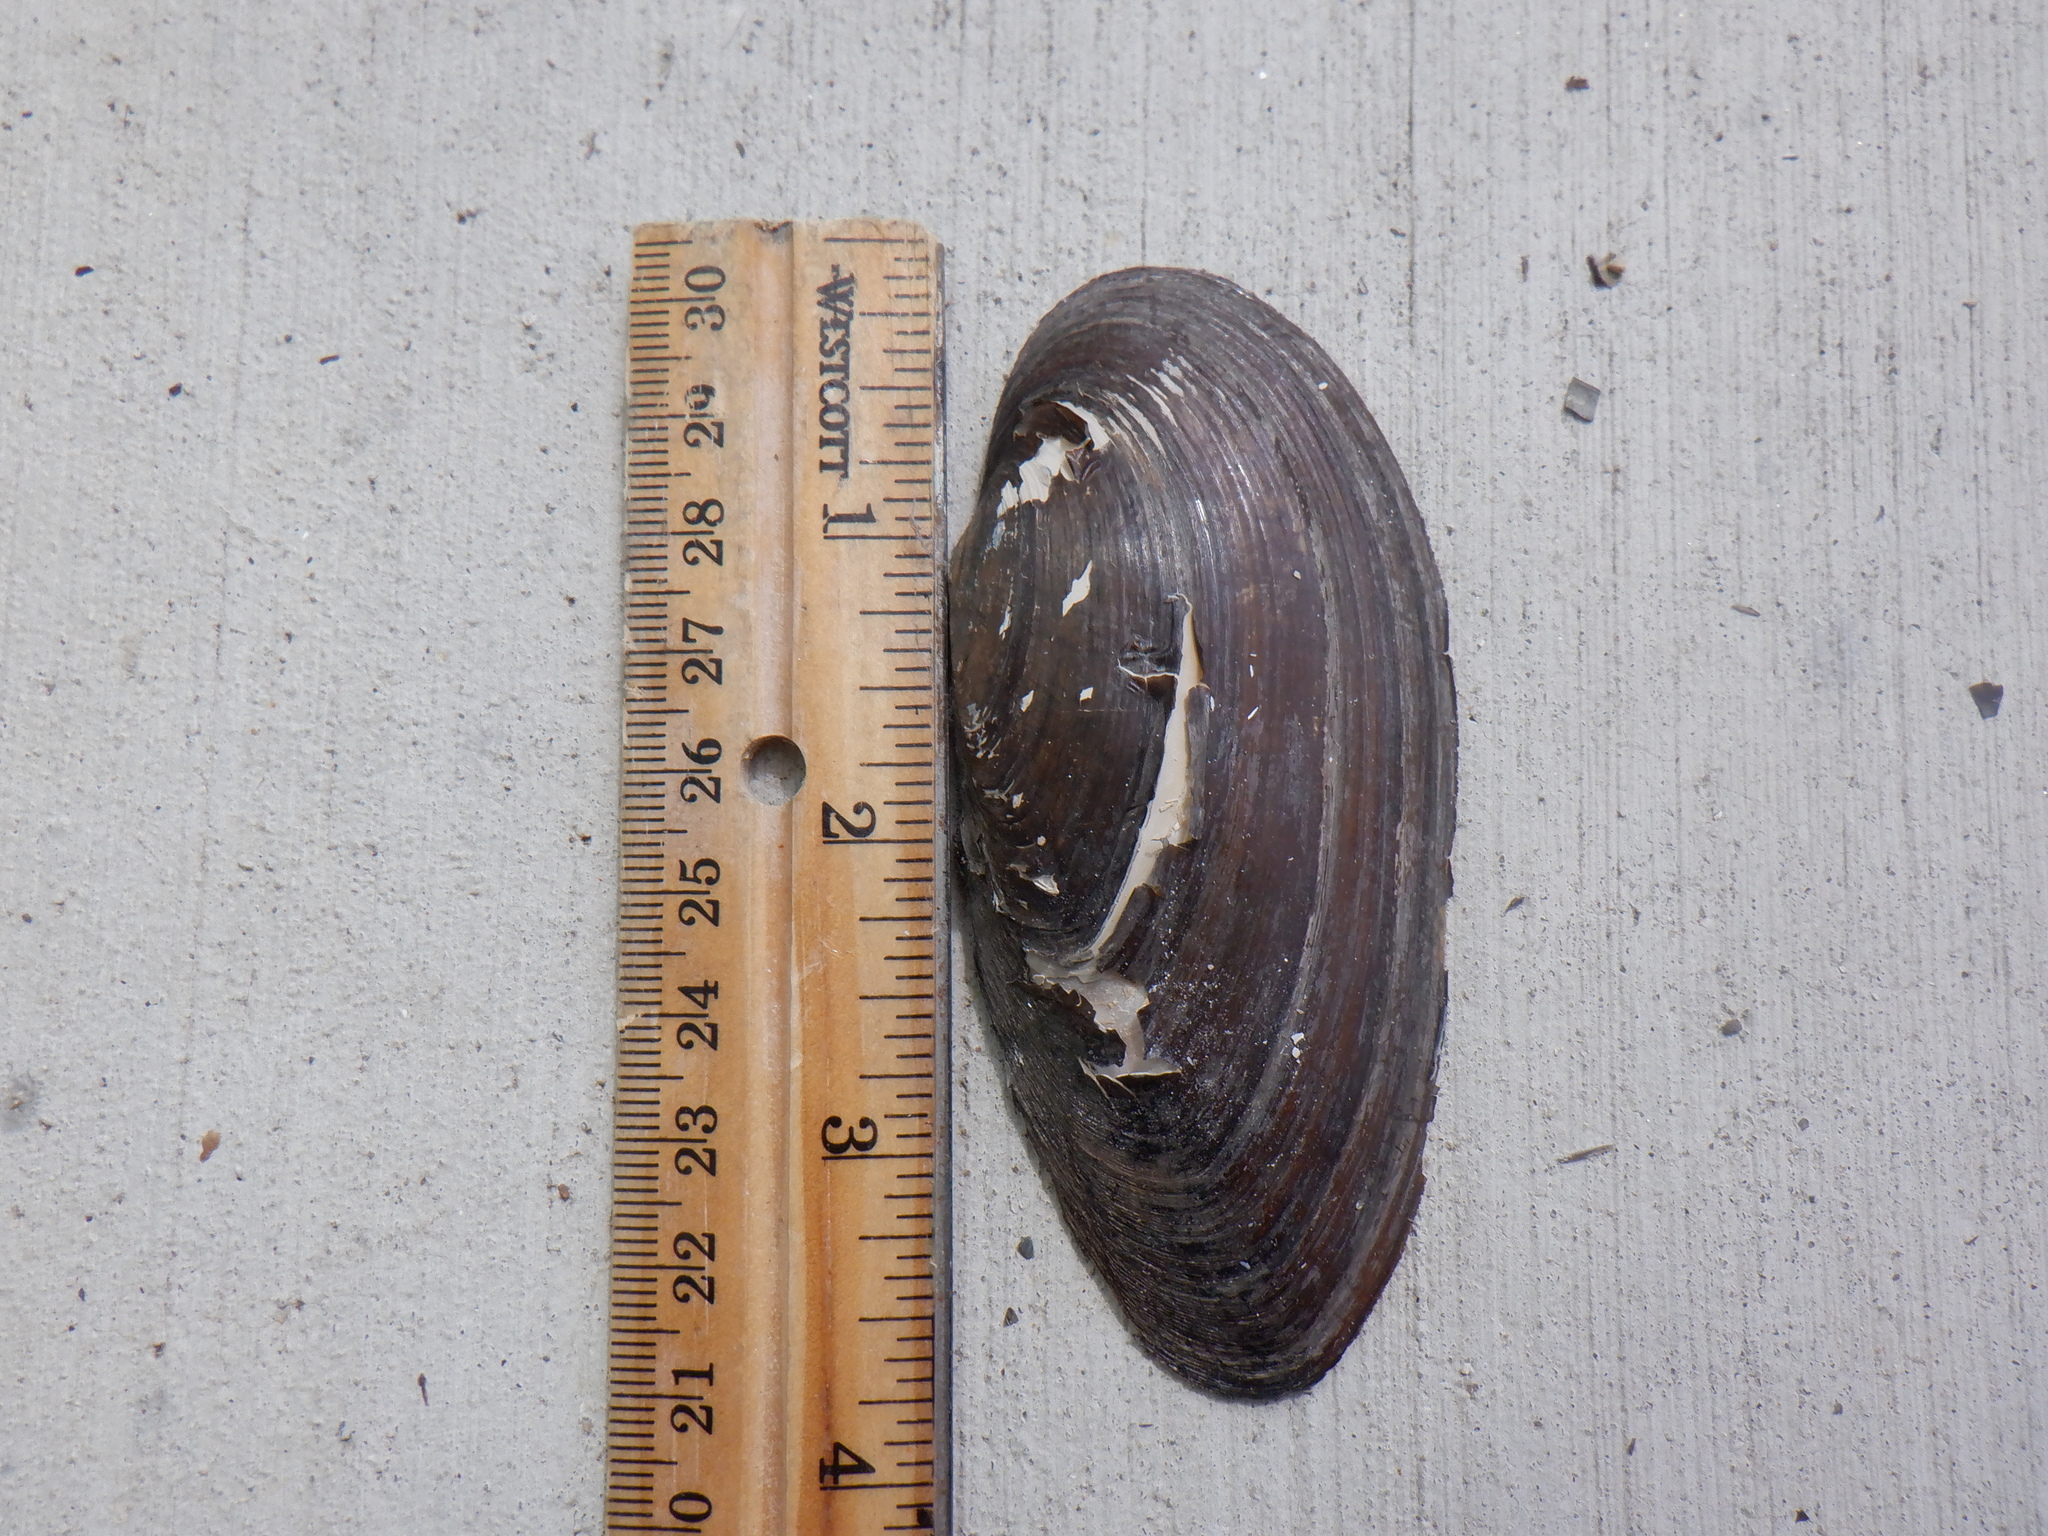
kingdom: Animalia
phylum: Mollusca
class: Bivalvia
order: Unionida
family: Unionidae
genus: Eurynia
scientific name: Eurynia dilatata
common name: Spike
